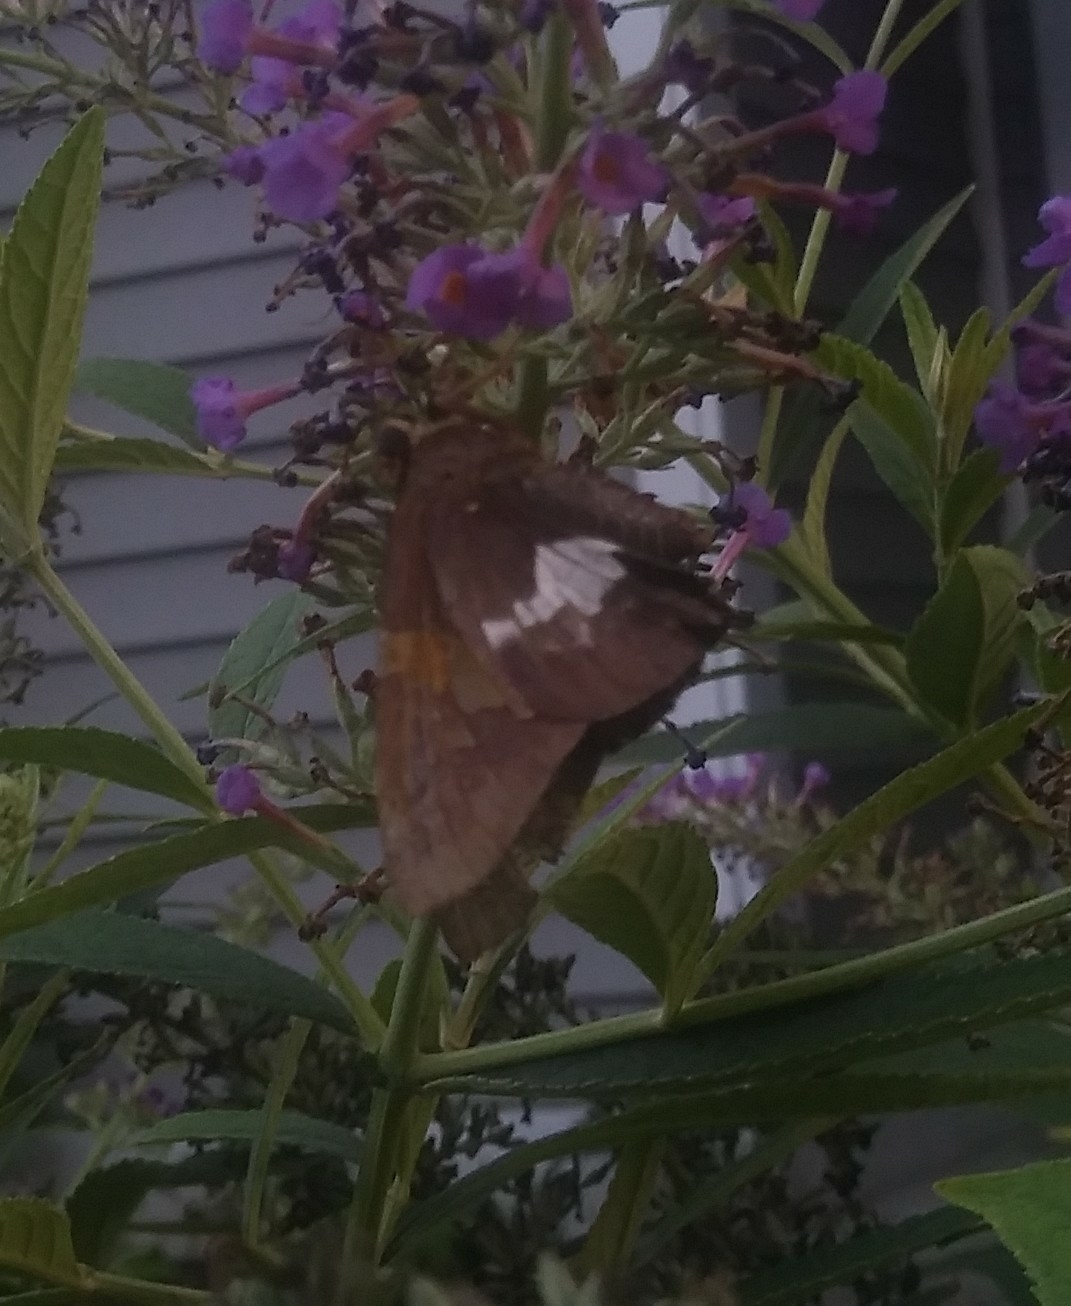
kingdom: Animalia
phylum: Arthropoda
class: Insecta
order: Lepidoptera
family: Hesperiidae
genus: Epargyreus
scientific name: Epargyreus clarus
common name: Silver-spotted skipper
